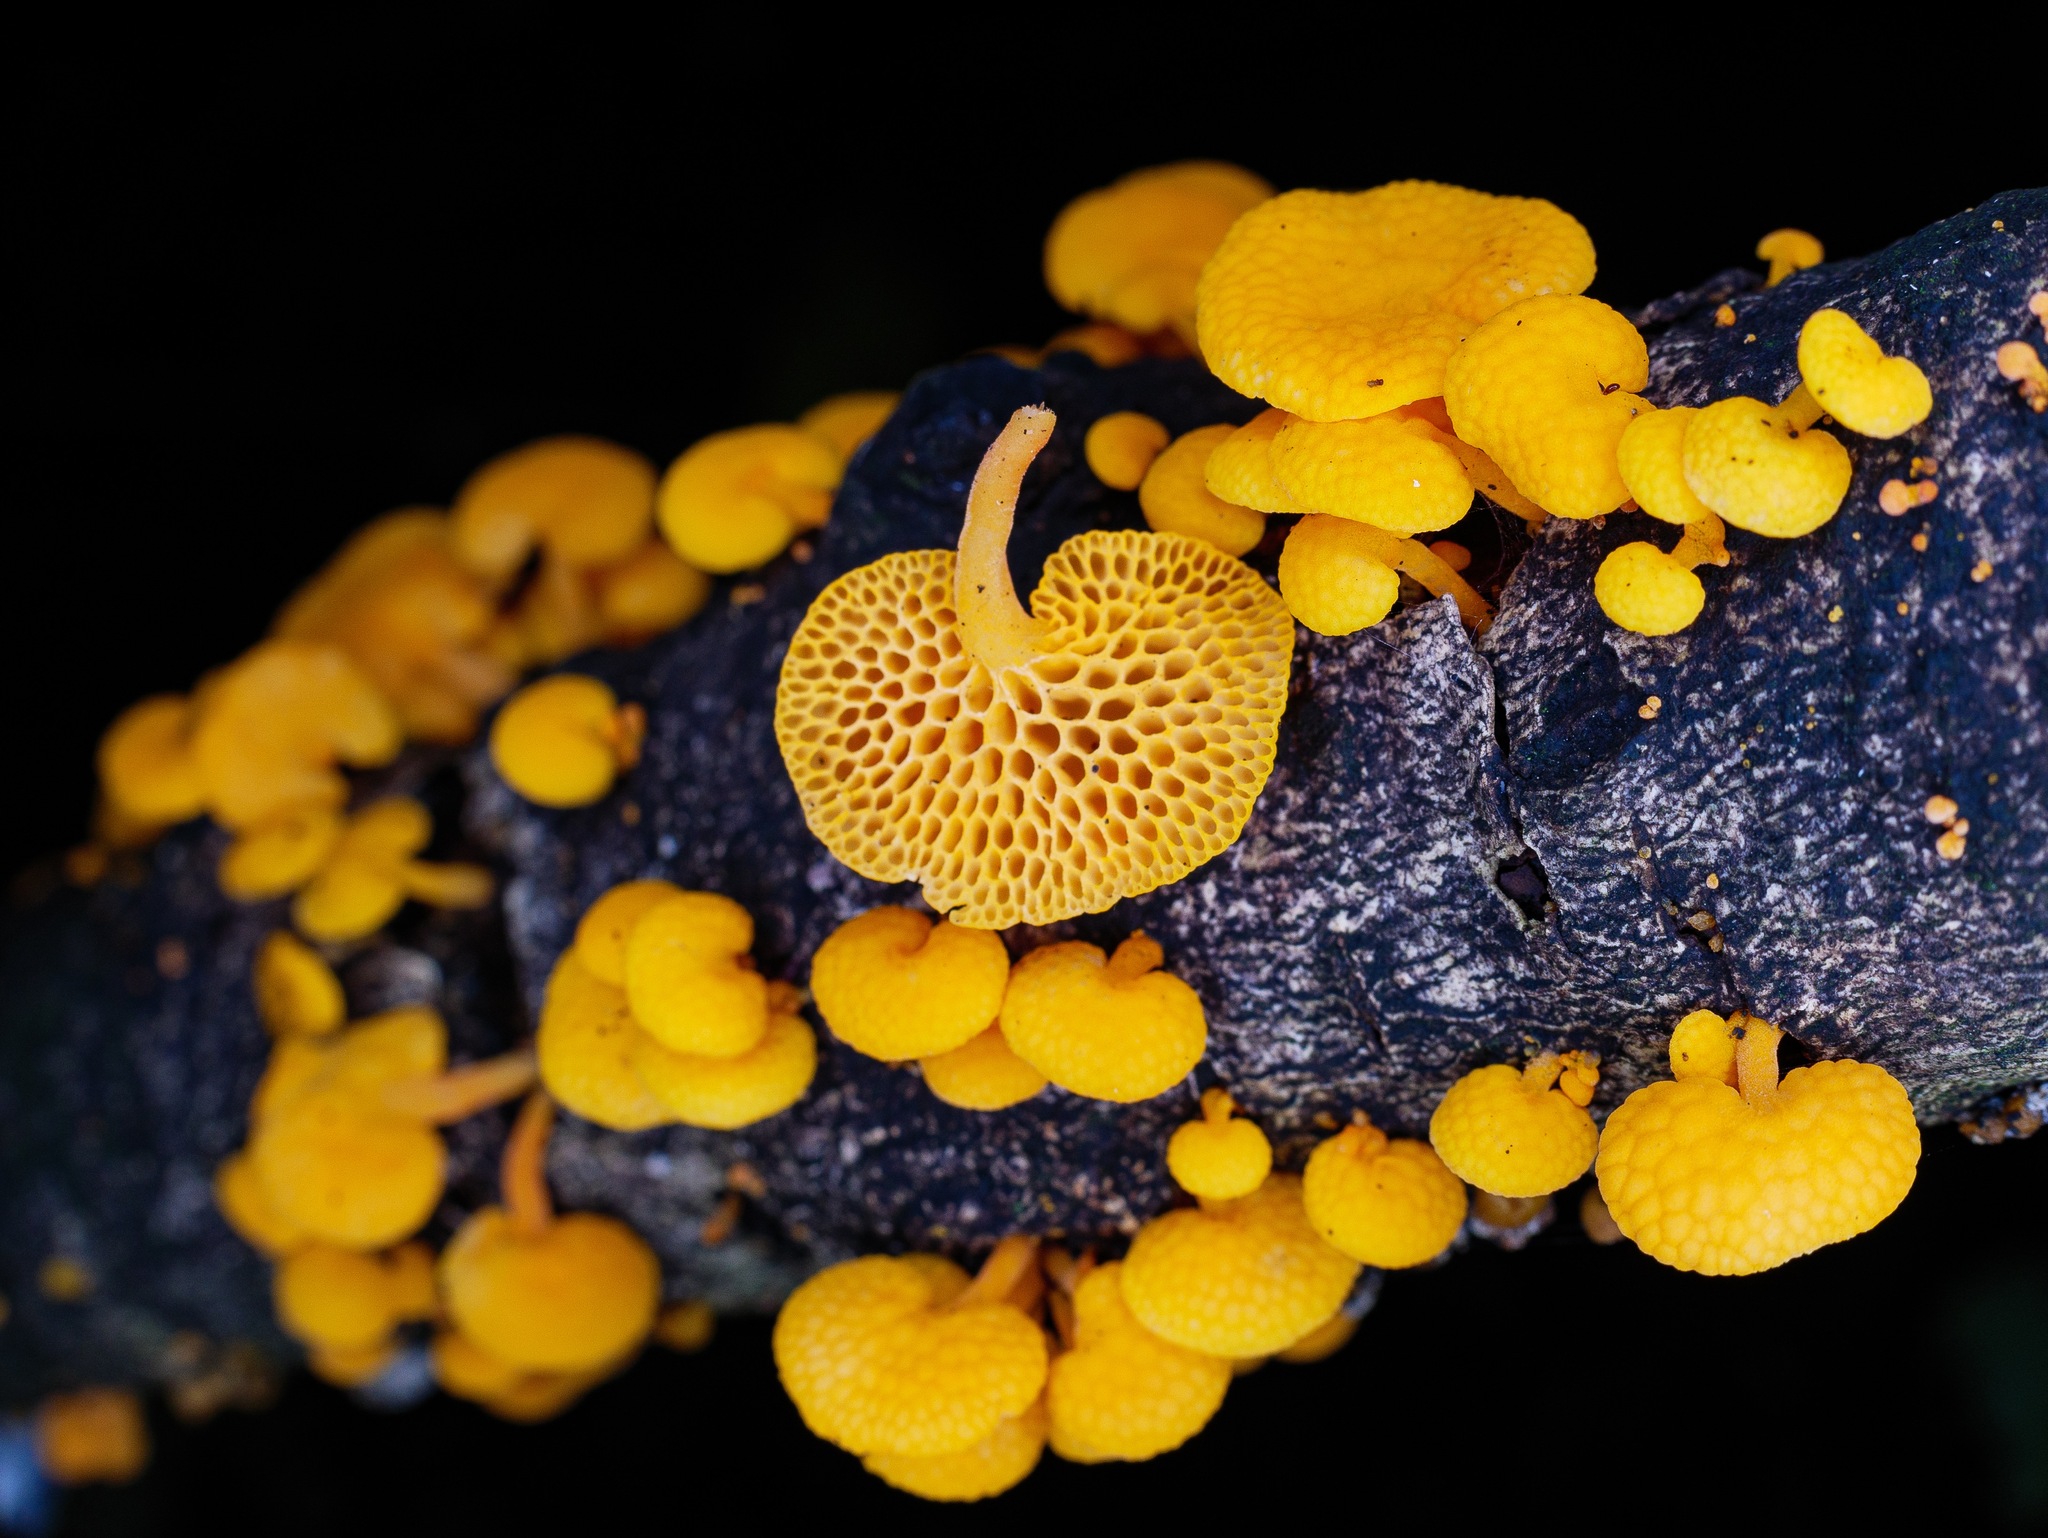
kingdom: Fungi
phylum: Basidiomycota
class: Agaricomycetes
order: Agaricales
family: Mycenaceae
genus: Favolaschia
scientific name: Favolaschia claudopus
